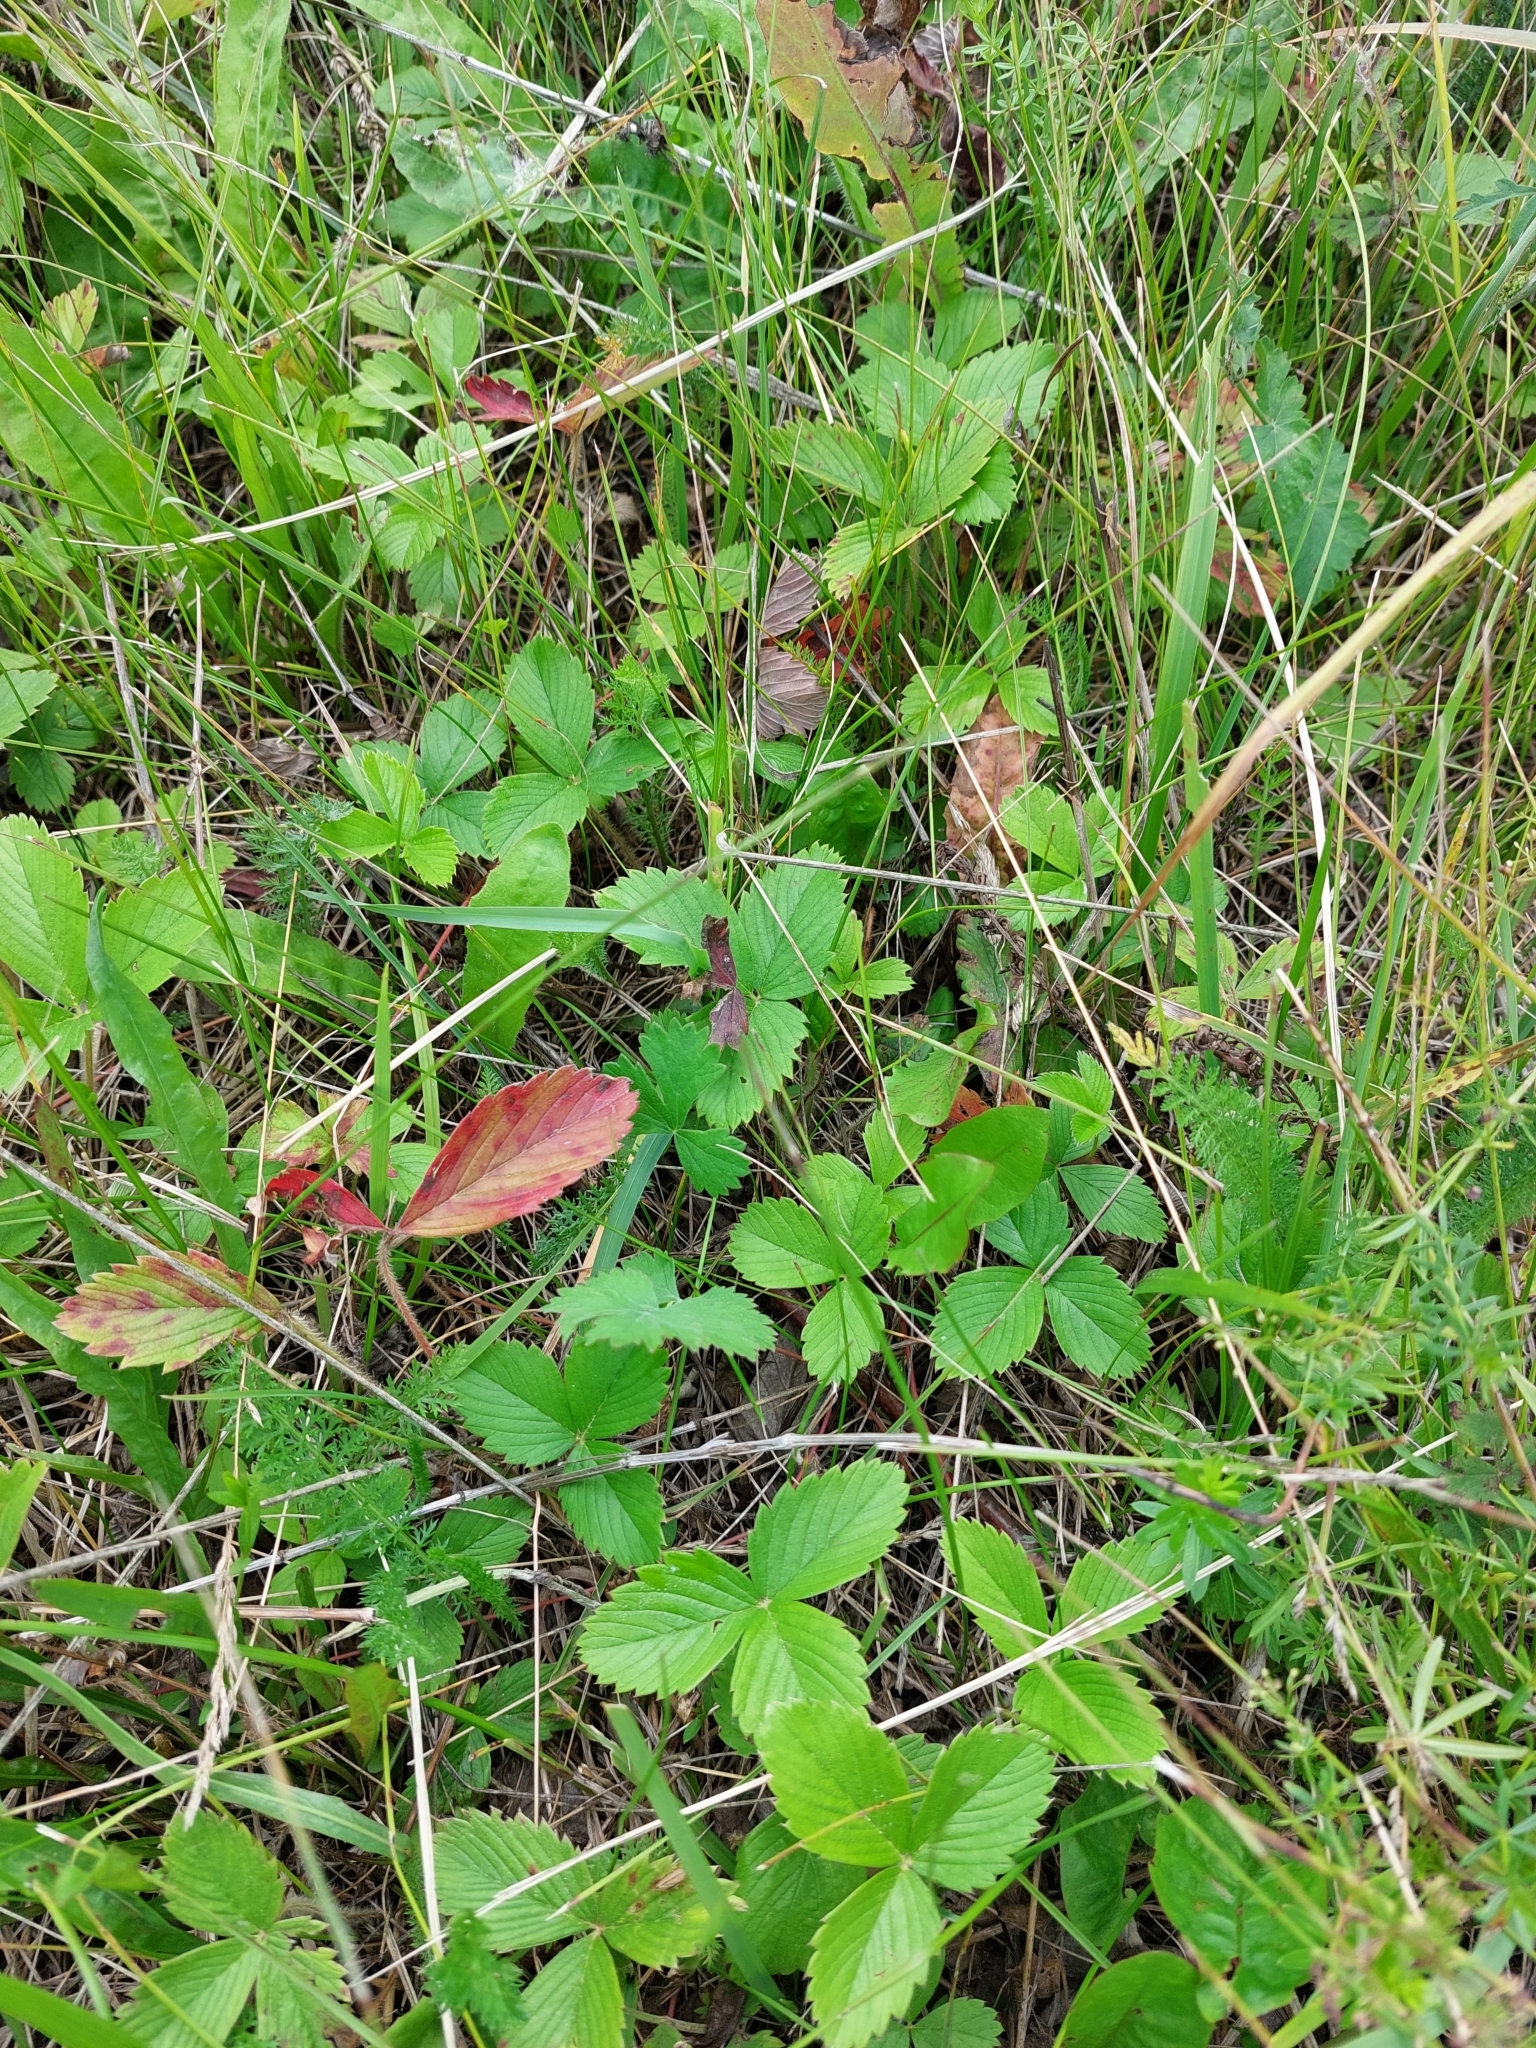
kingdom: Plantae
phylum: Tracheophyta
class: Magnoliopsida
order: Rosales
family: Rosaceae
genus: Fragaria
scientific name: Fragaria viridis
